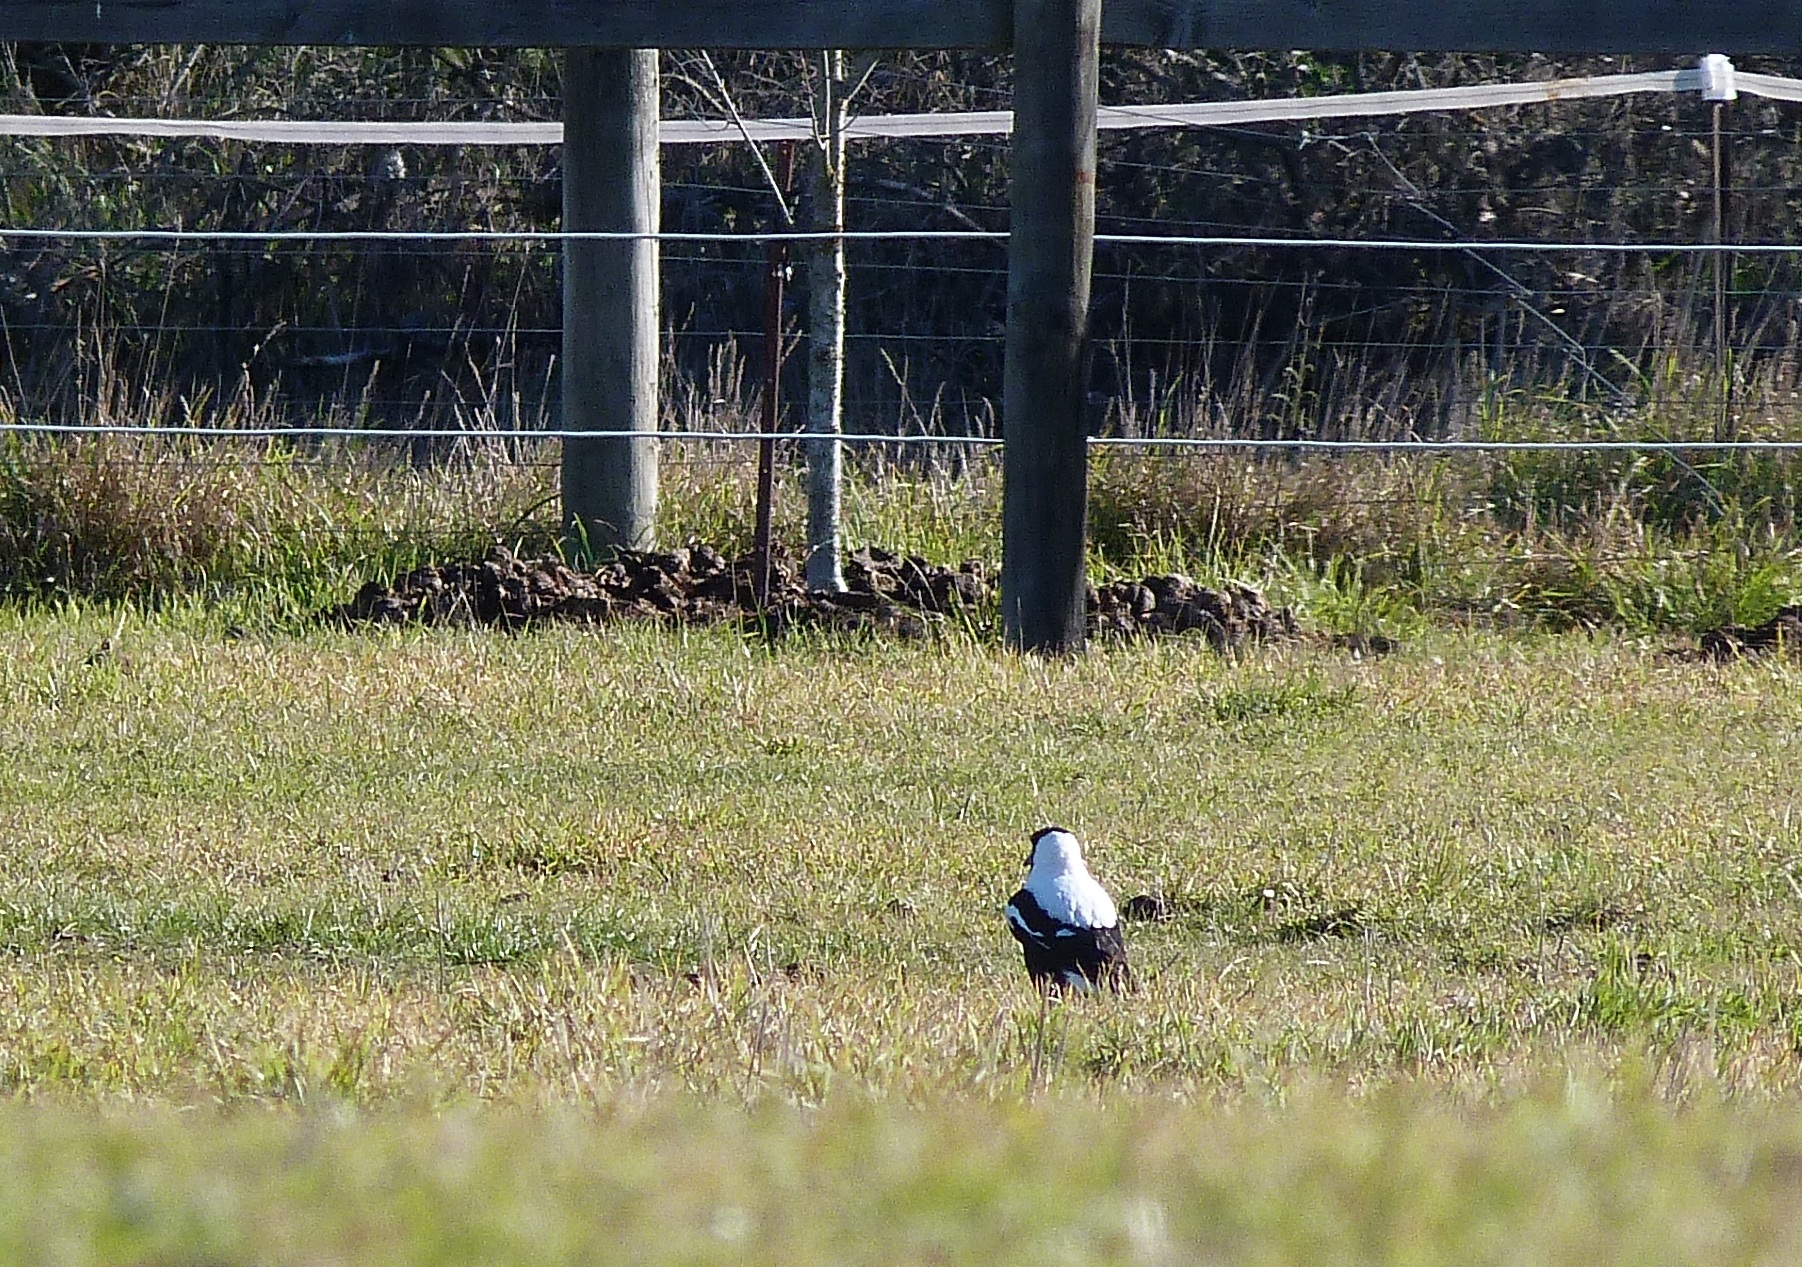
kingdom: Animalia
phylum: Chordata
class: Aves
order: Passeriformes
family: Cracticidae
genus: Gymnorhina
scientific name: Gymnorhina tibicen
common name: Australian magpie
